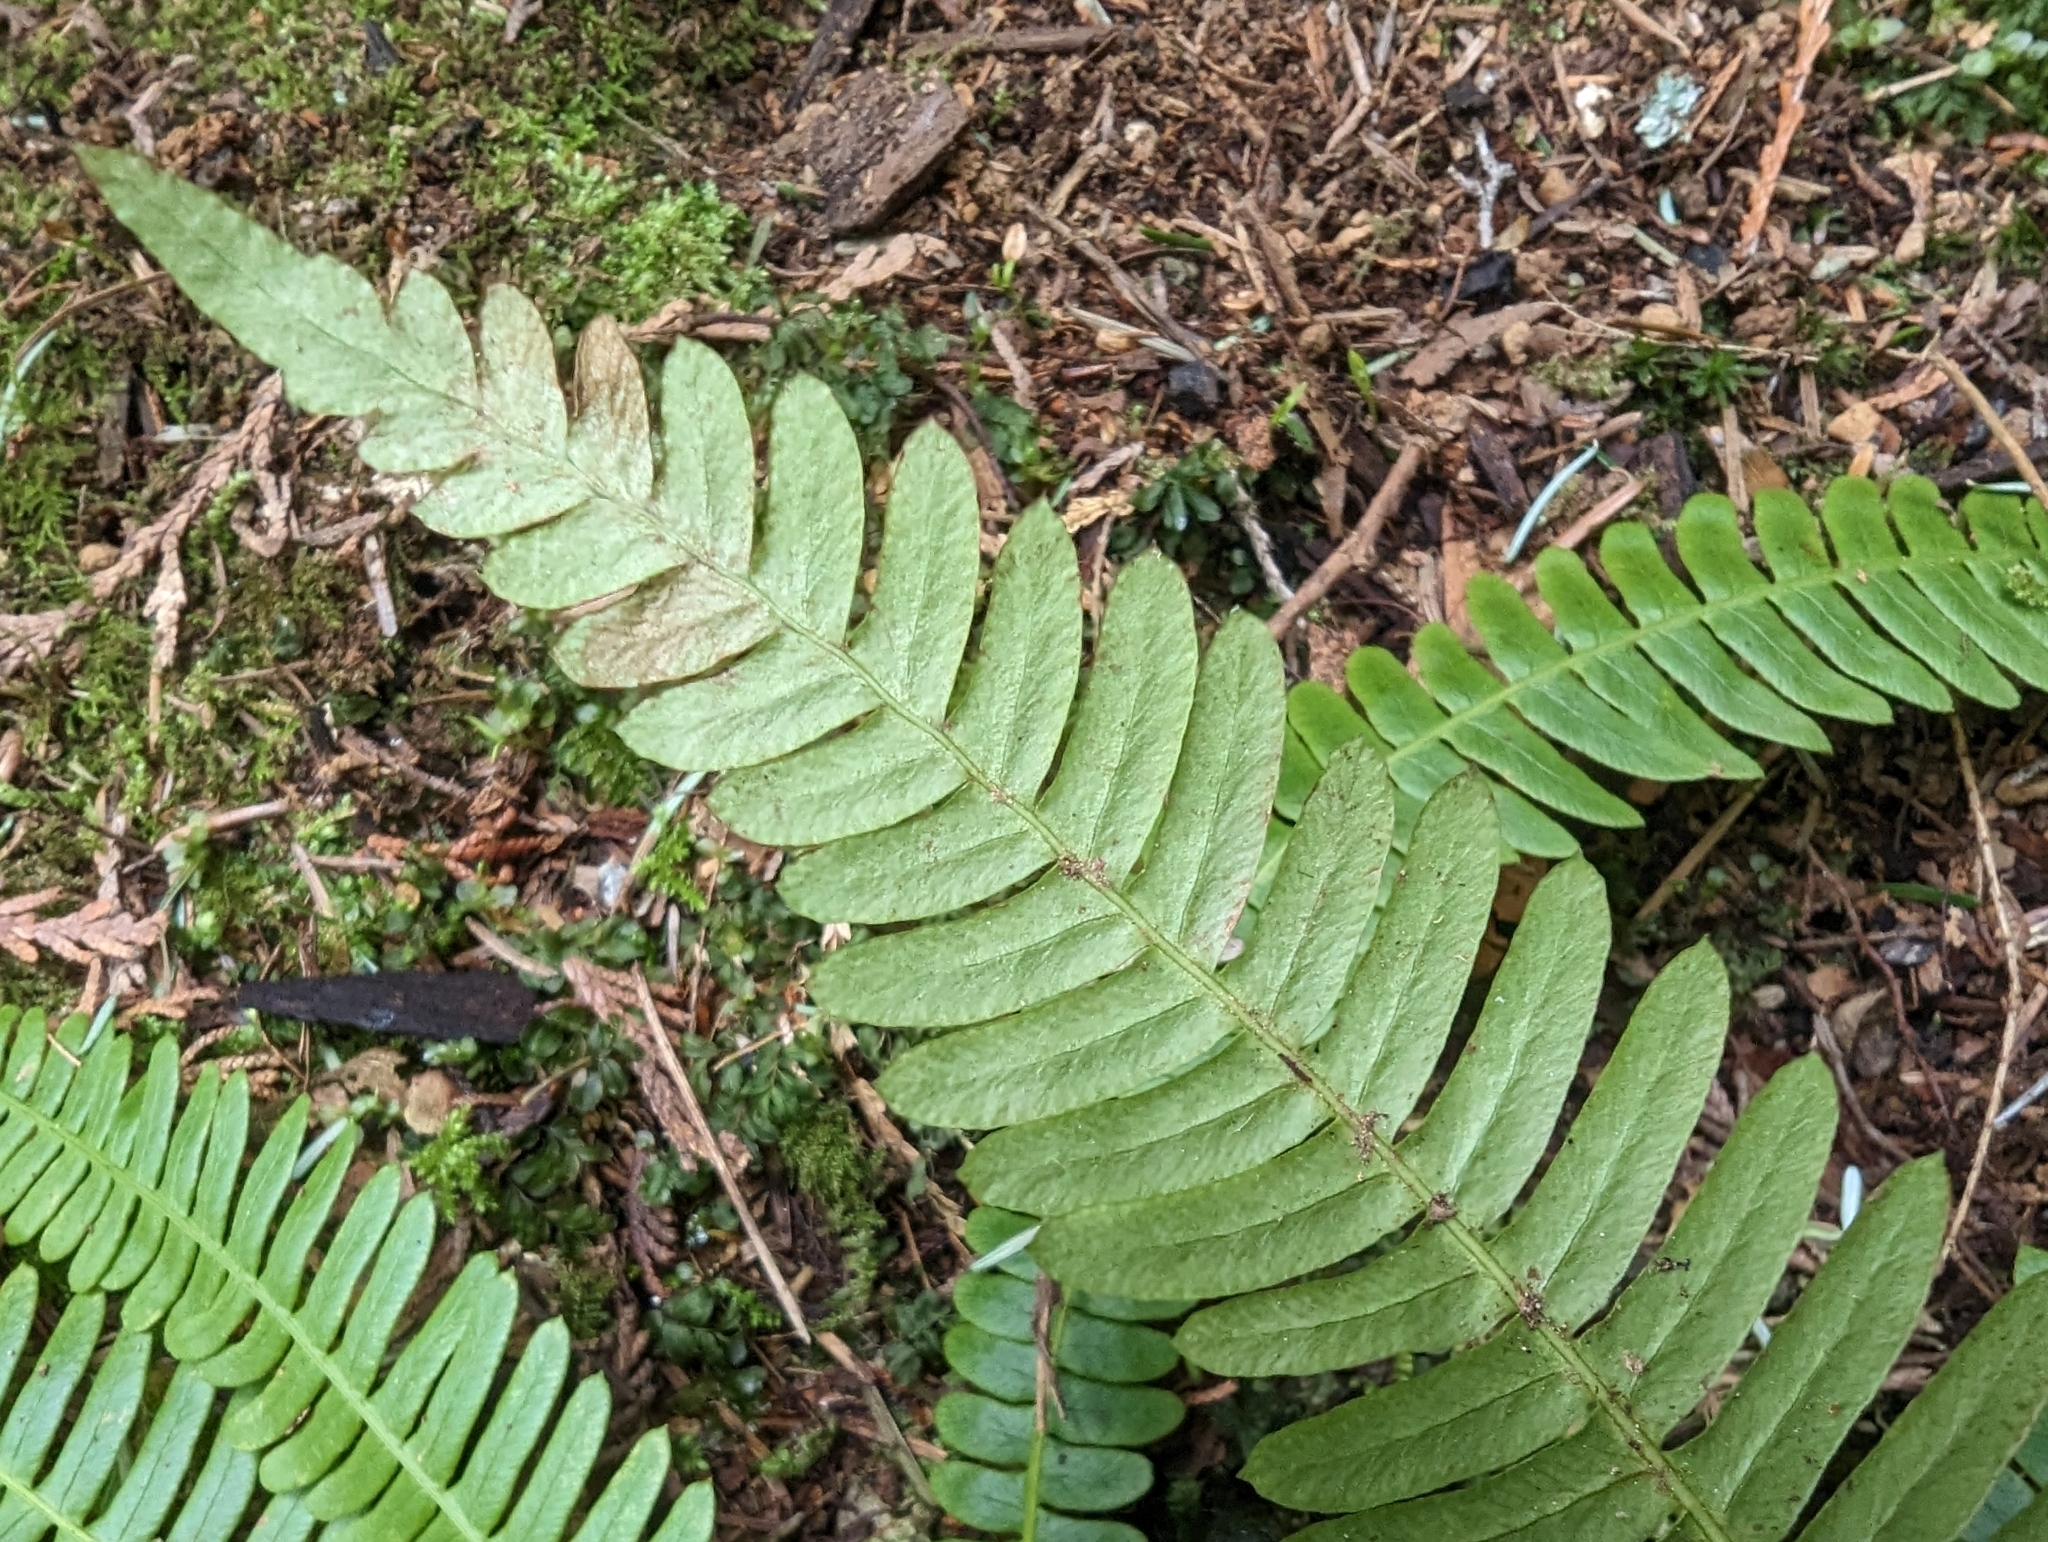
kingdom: Plantae
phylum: Tracheophyta
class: Polypodiopsida
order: Polypodiales
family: Blechnaceae
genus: Struthiopteris
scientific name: Struthiopteris spicant
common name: Deer fern
